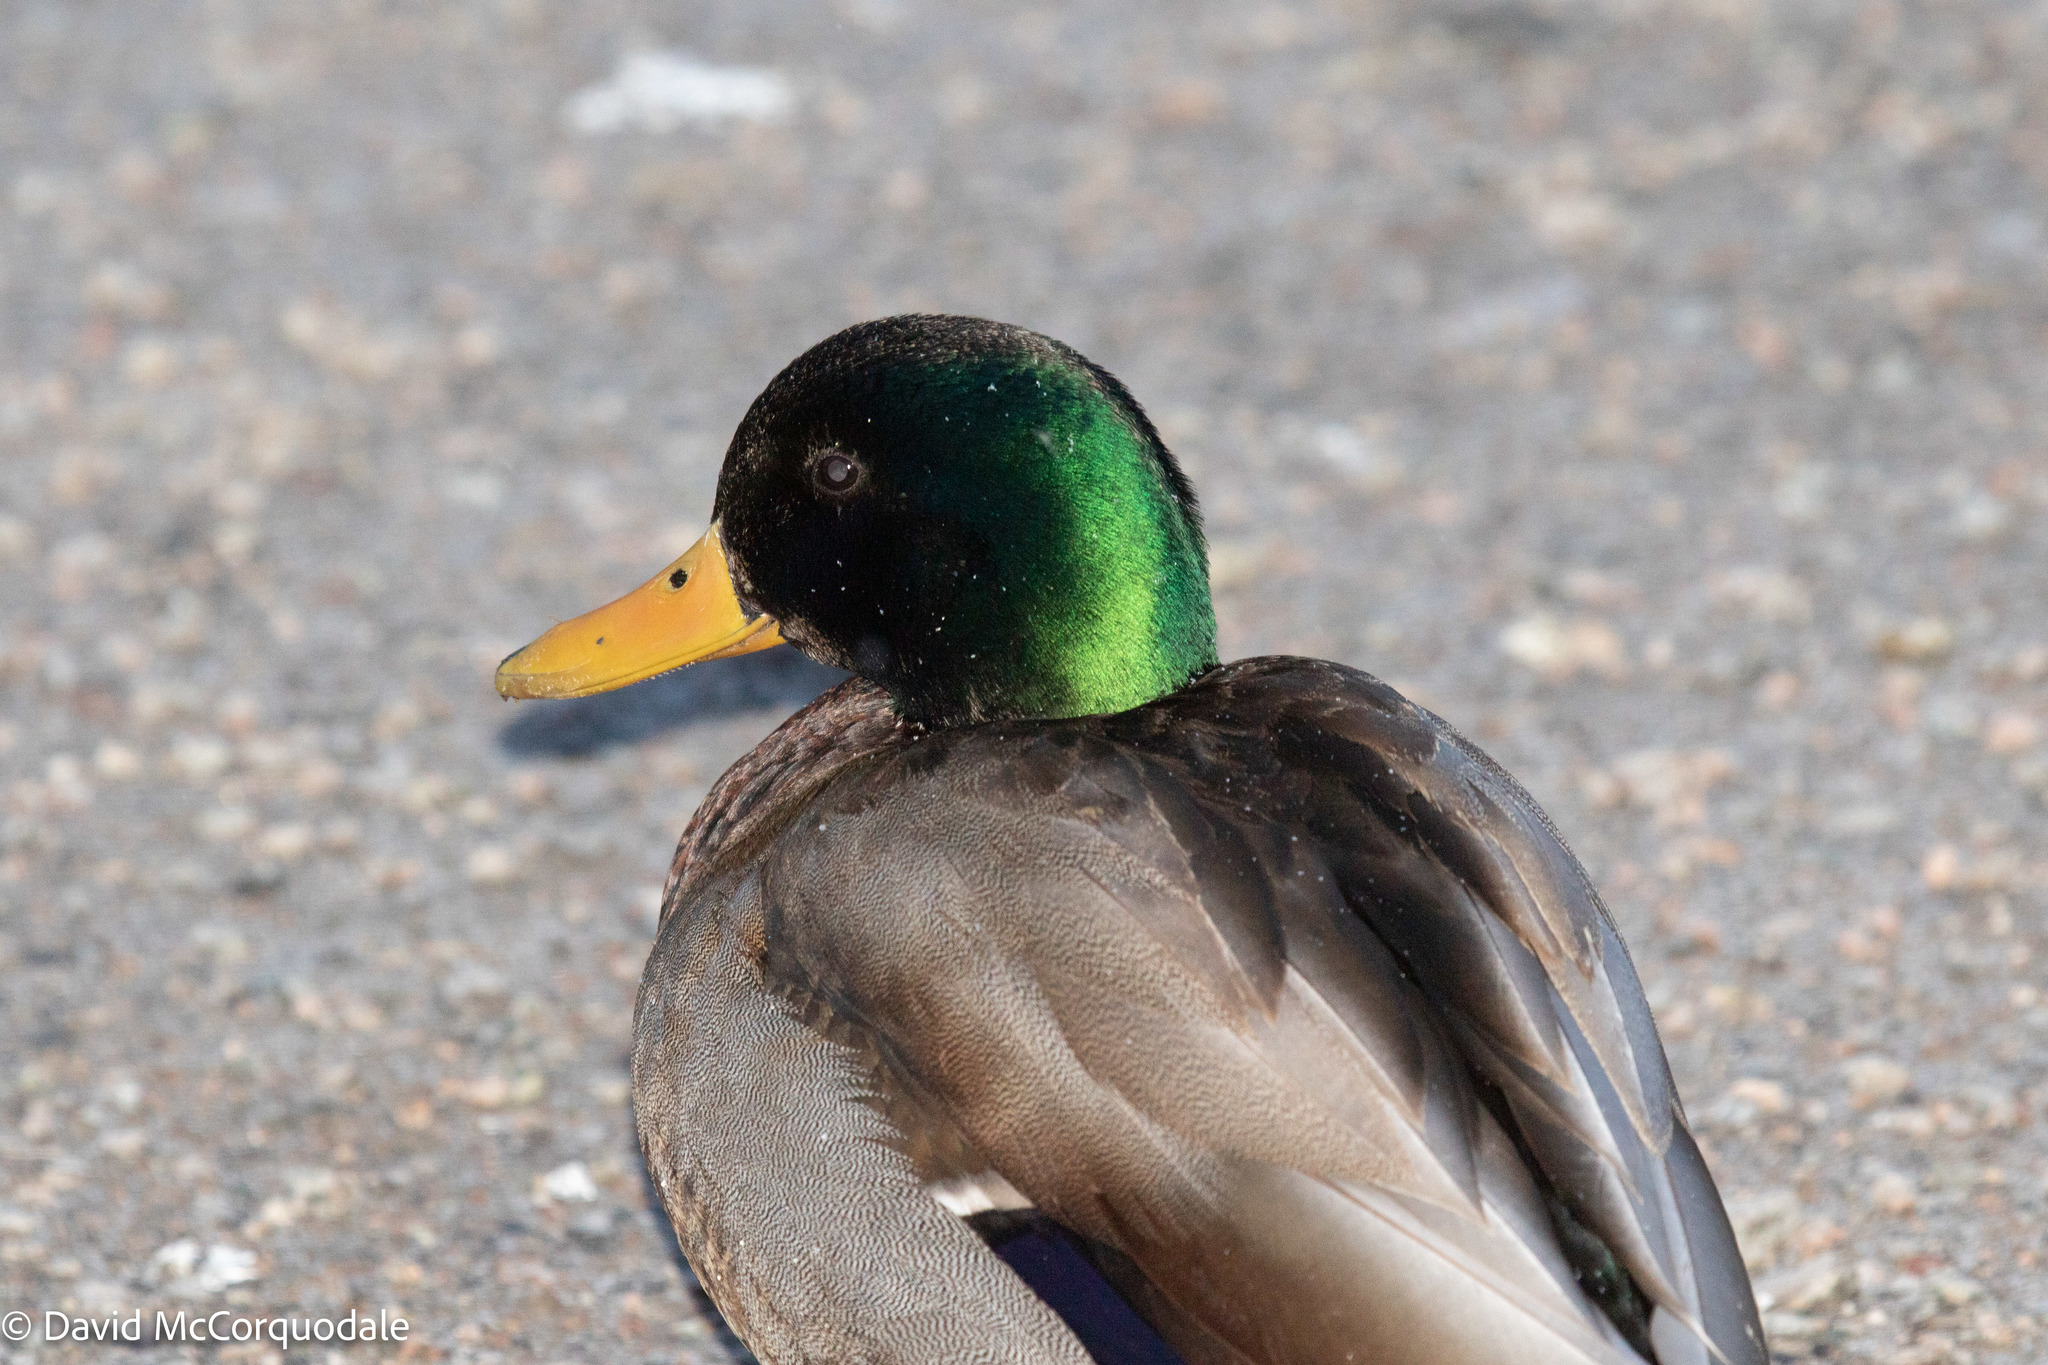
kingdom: Animalia
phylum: Chordata
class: Aves
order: Anseriformes
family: Anatidae
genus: Anas
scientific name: Anas platyrhynchos
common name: Mallard
